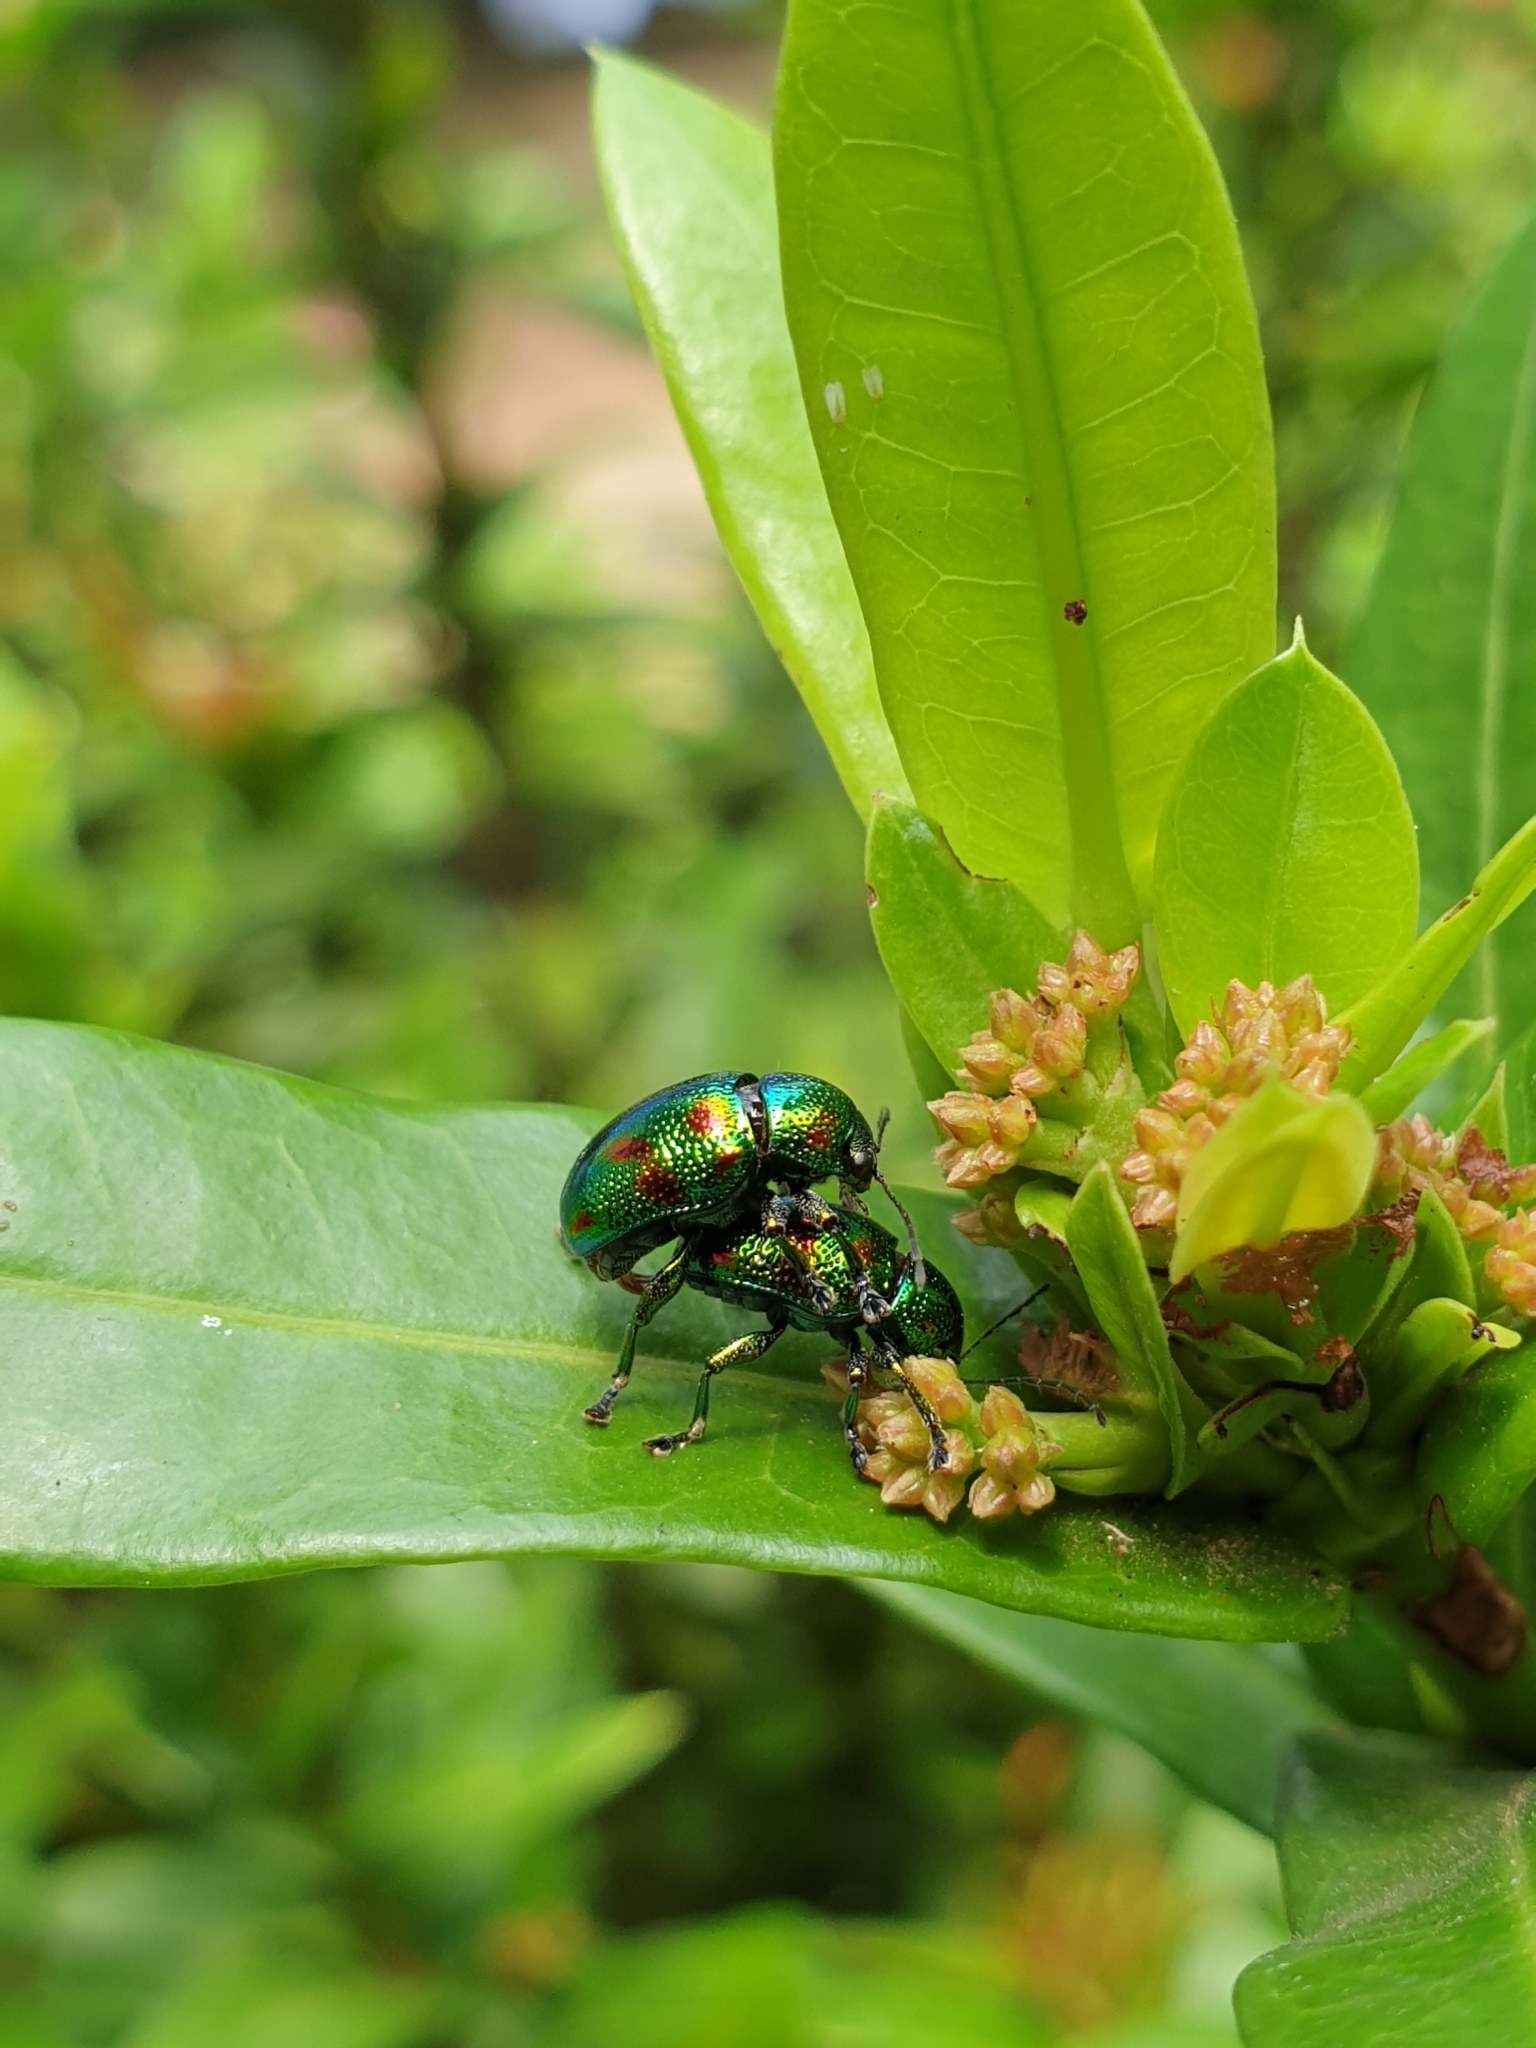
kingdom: Animalia
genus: Dermorhytis
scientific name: Dermorhytis
